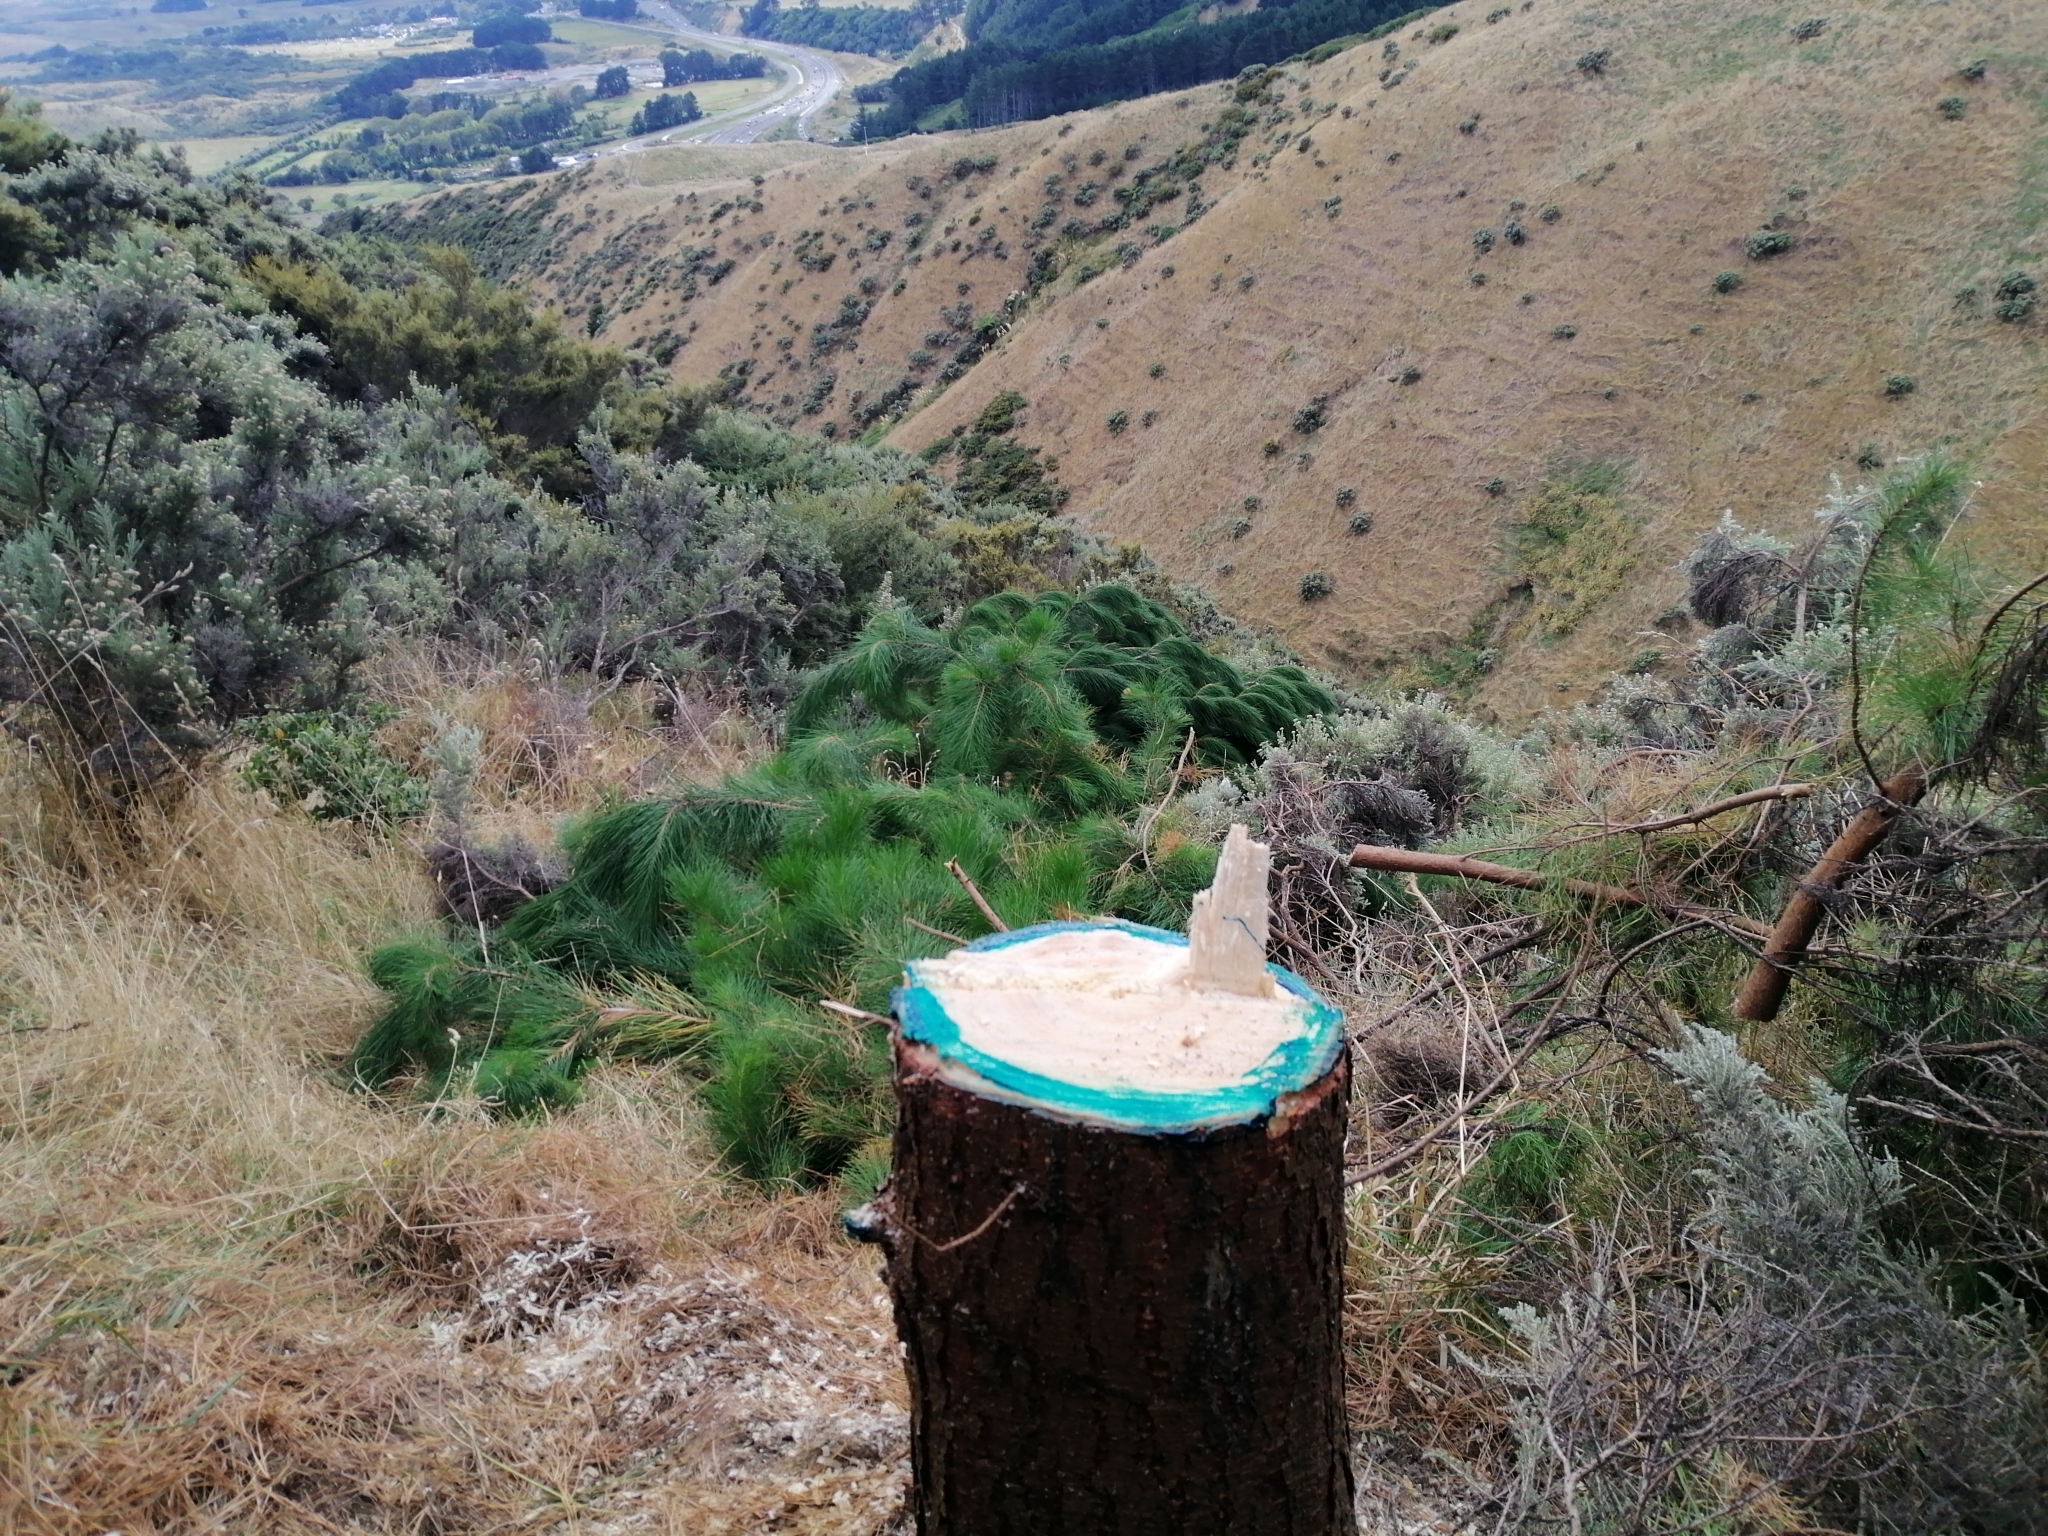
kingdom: Plantae
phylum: Tracheophyta
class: Pinopsida
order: Pinales
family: Pinaceae
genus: Pinus
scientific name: Pinus radiata
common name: Monterey pine
